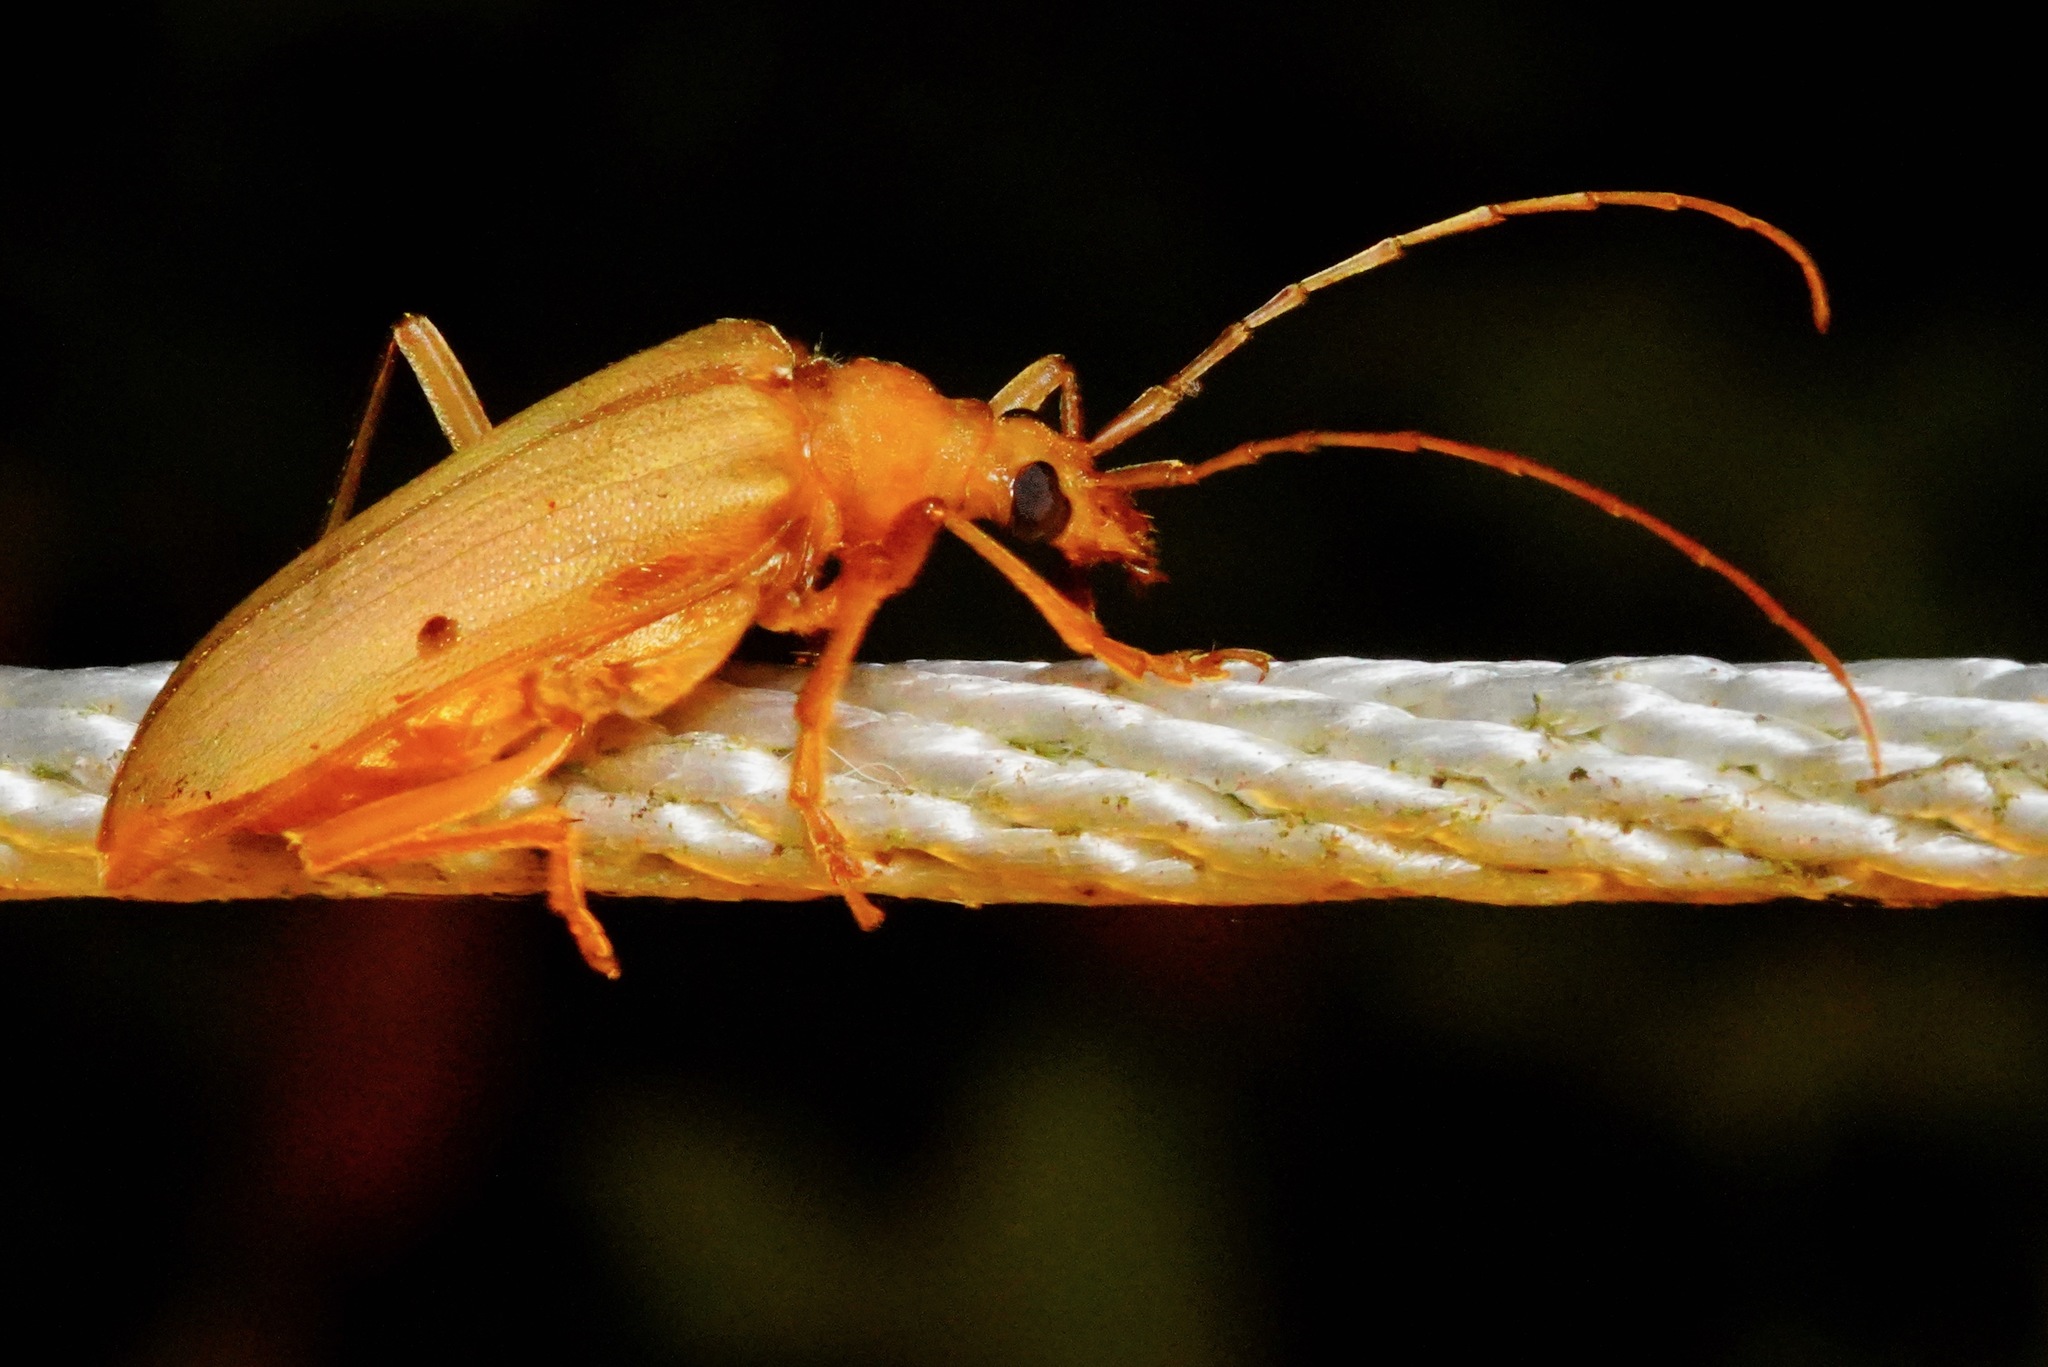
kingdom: Animalia
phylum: Arthropoda
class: Insecta
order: Coleoptera
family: Cerambycidae
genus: Centrodera
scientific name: Centrodera spurca
